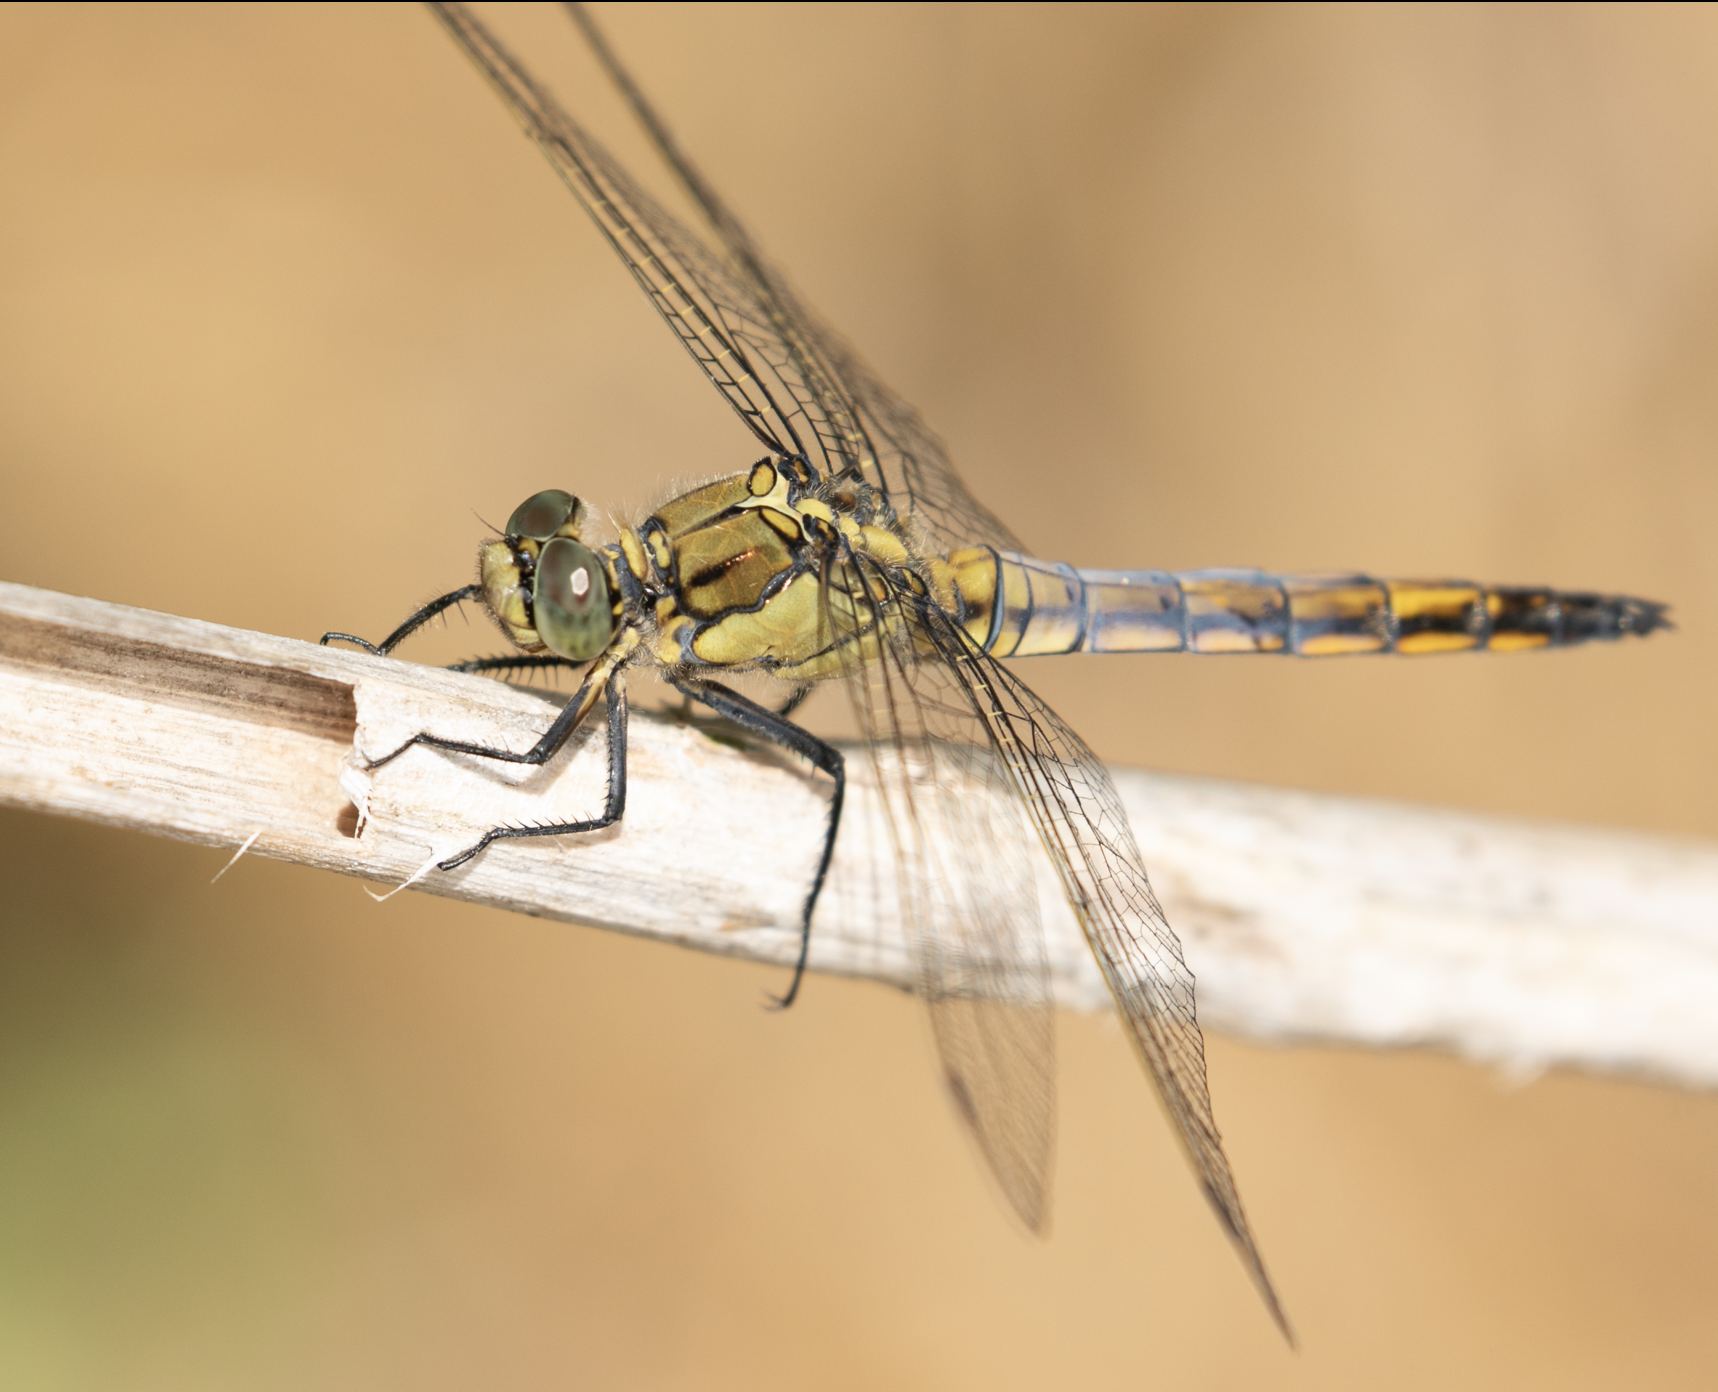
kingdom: Animalia
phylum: Arthropoda
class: Insecta
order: Odonata
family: Libellulidae
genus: Orthetrum
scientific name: Orthetrum cancellatum
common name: Black-tailed skimmer
